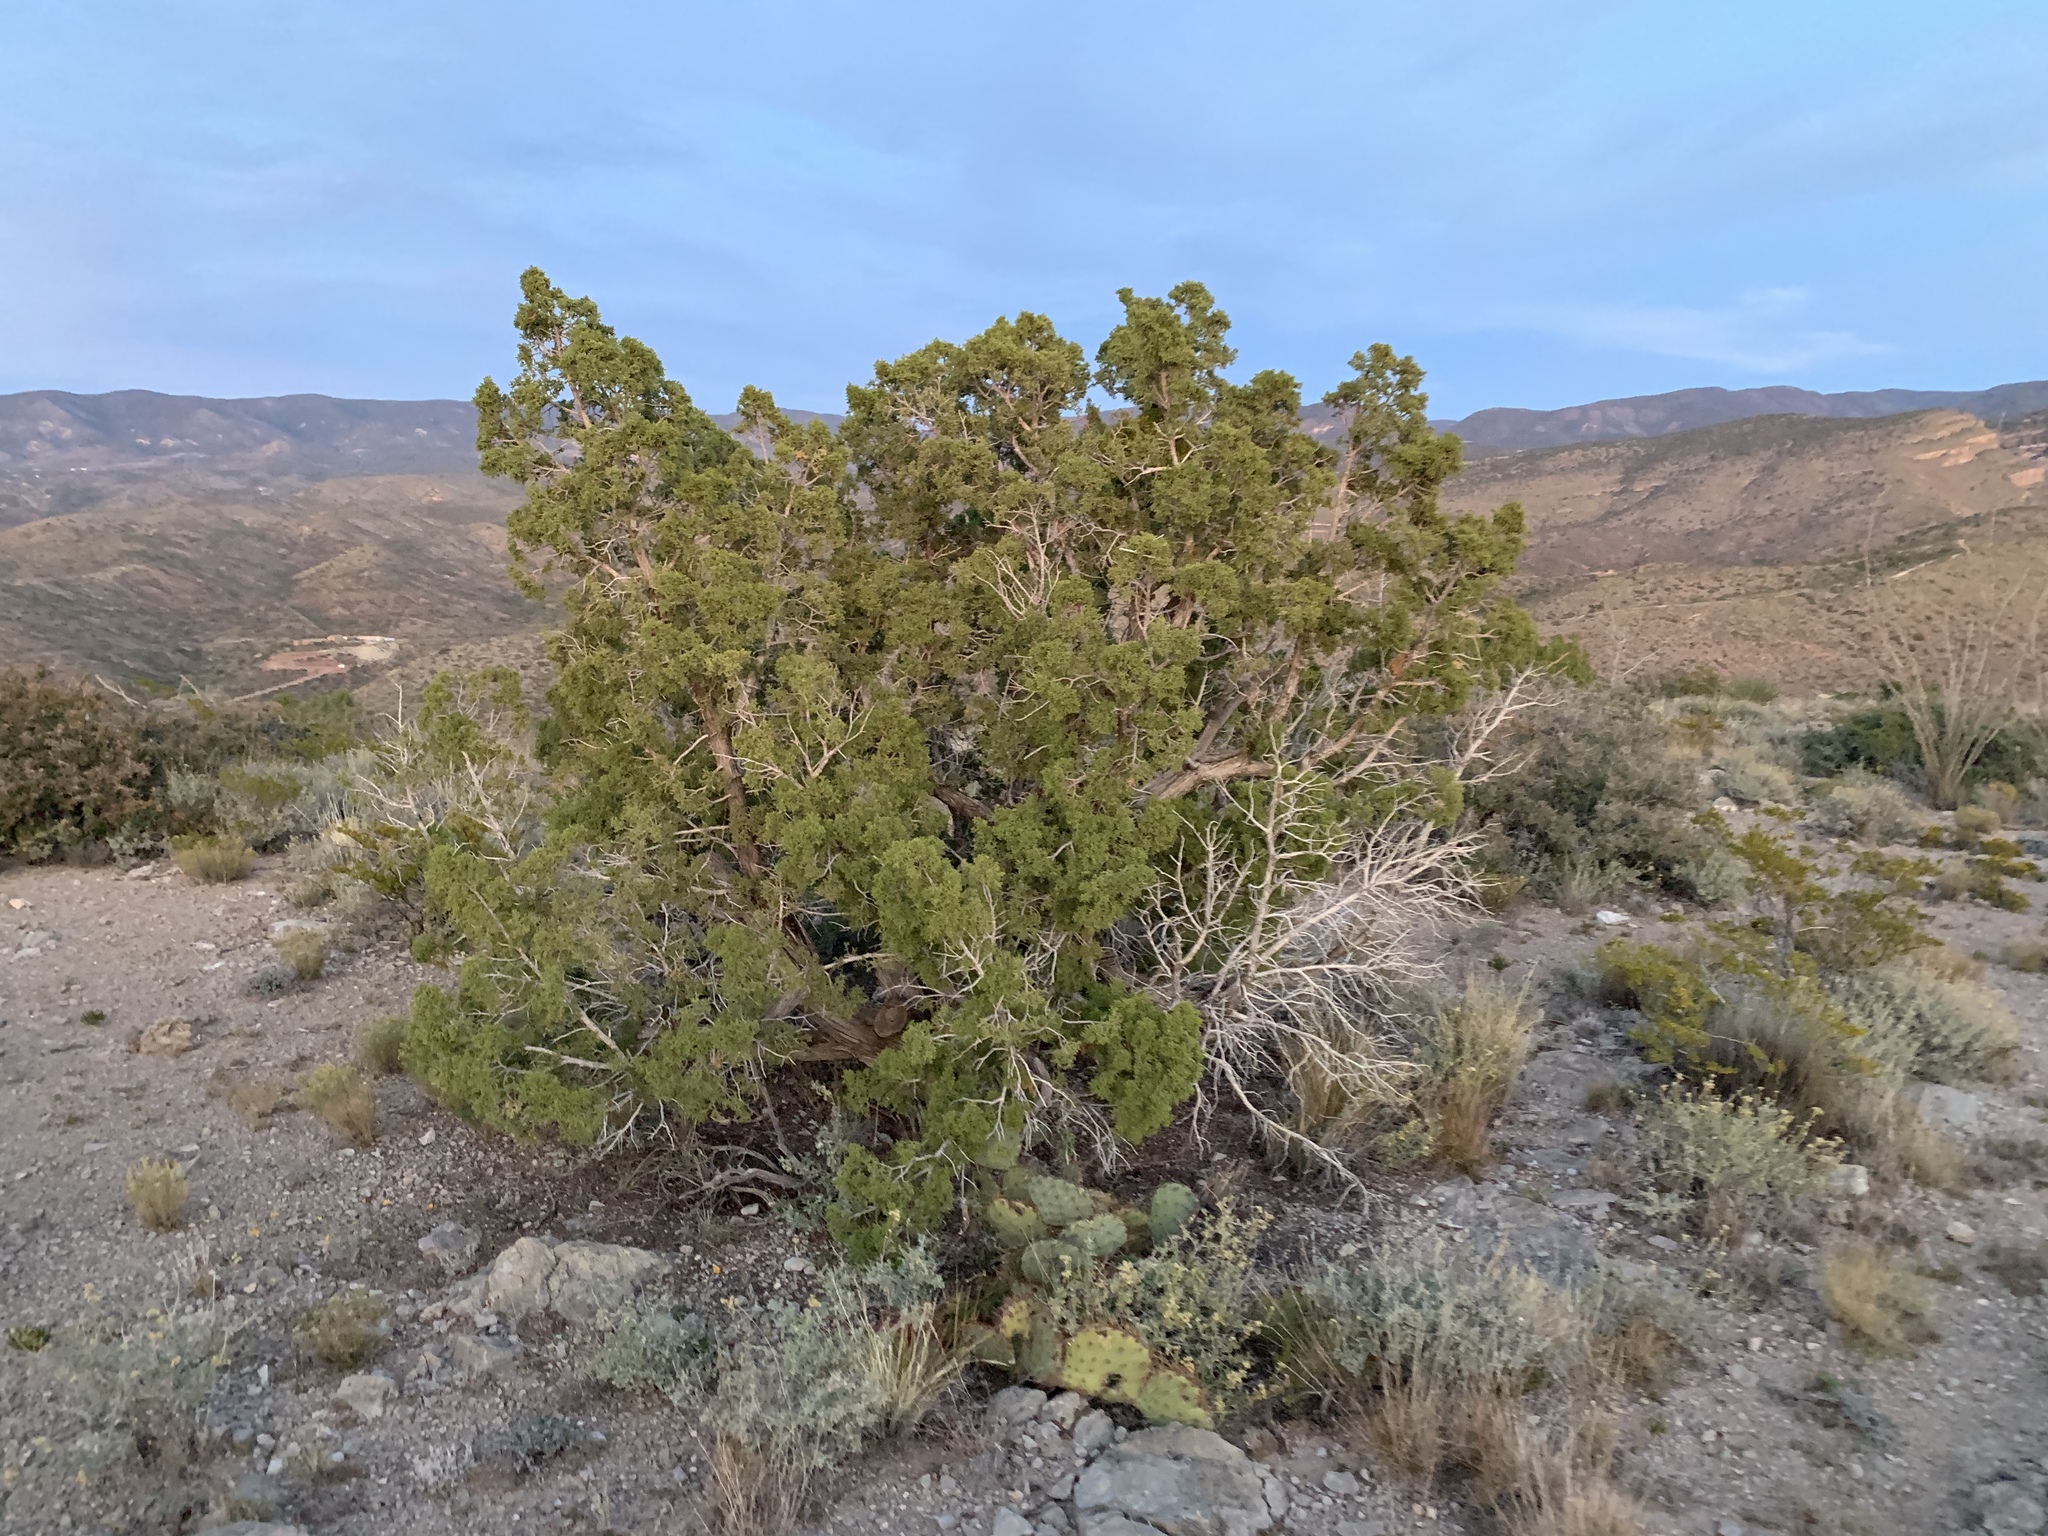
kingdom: Plantae
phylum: Tracheophyta
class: Pinopsida
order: Pinales
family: Cupressaceae
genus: Juniperus
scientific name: Juniperus monosperma
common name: One-seed juniper
